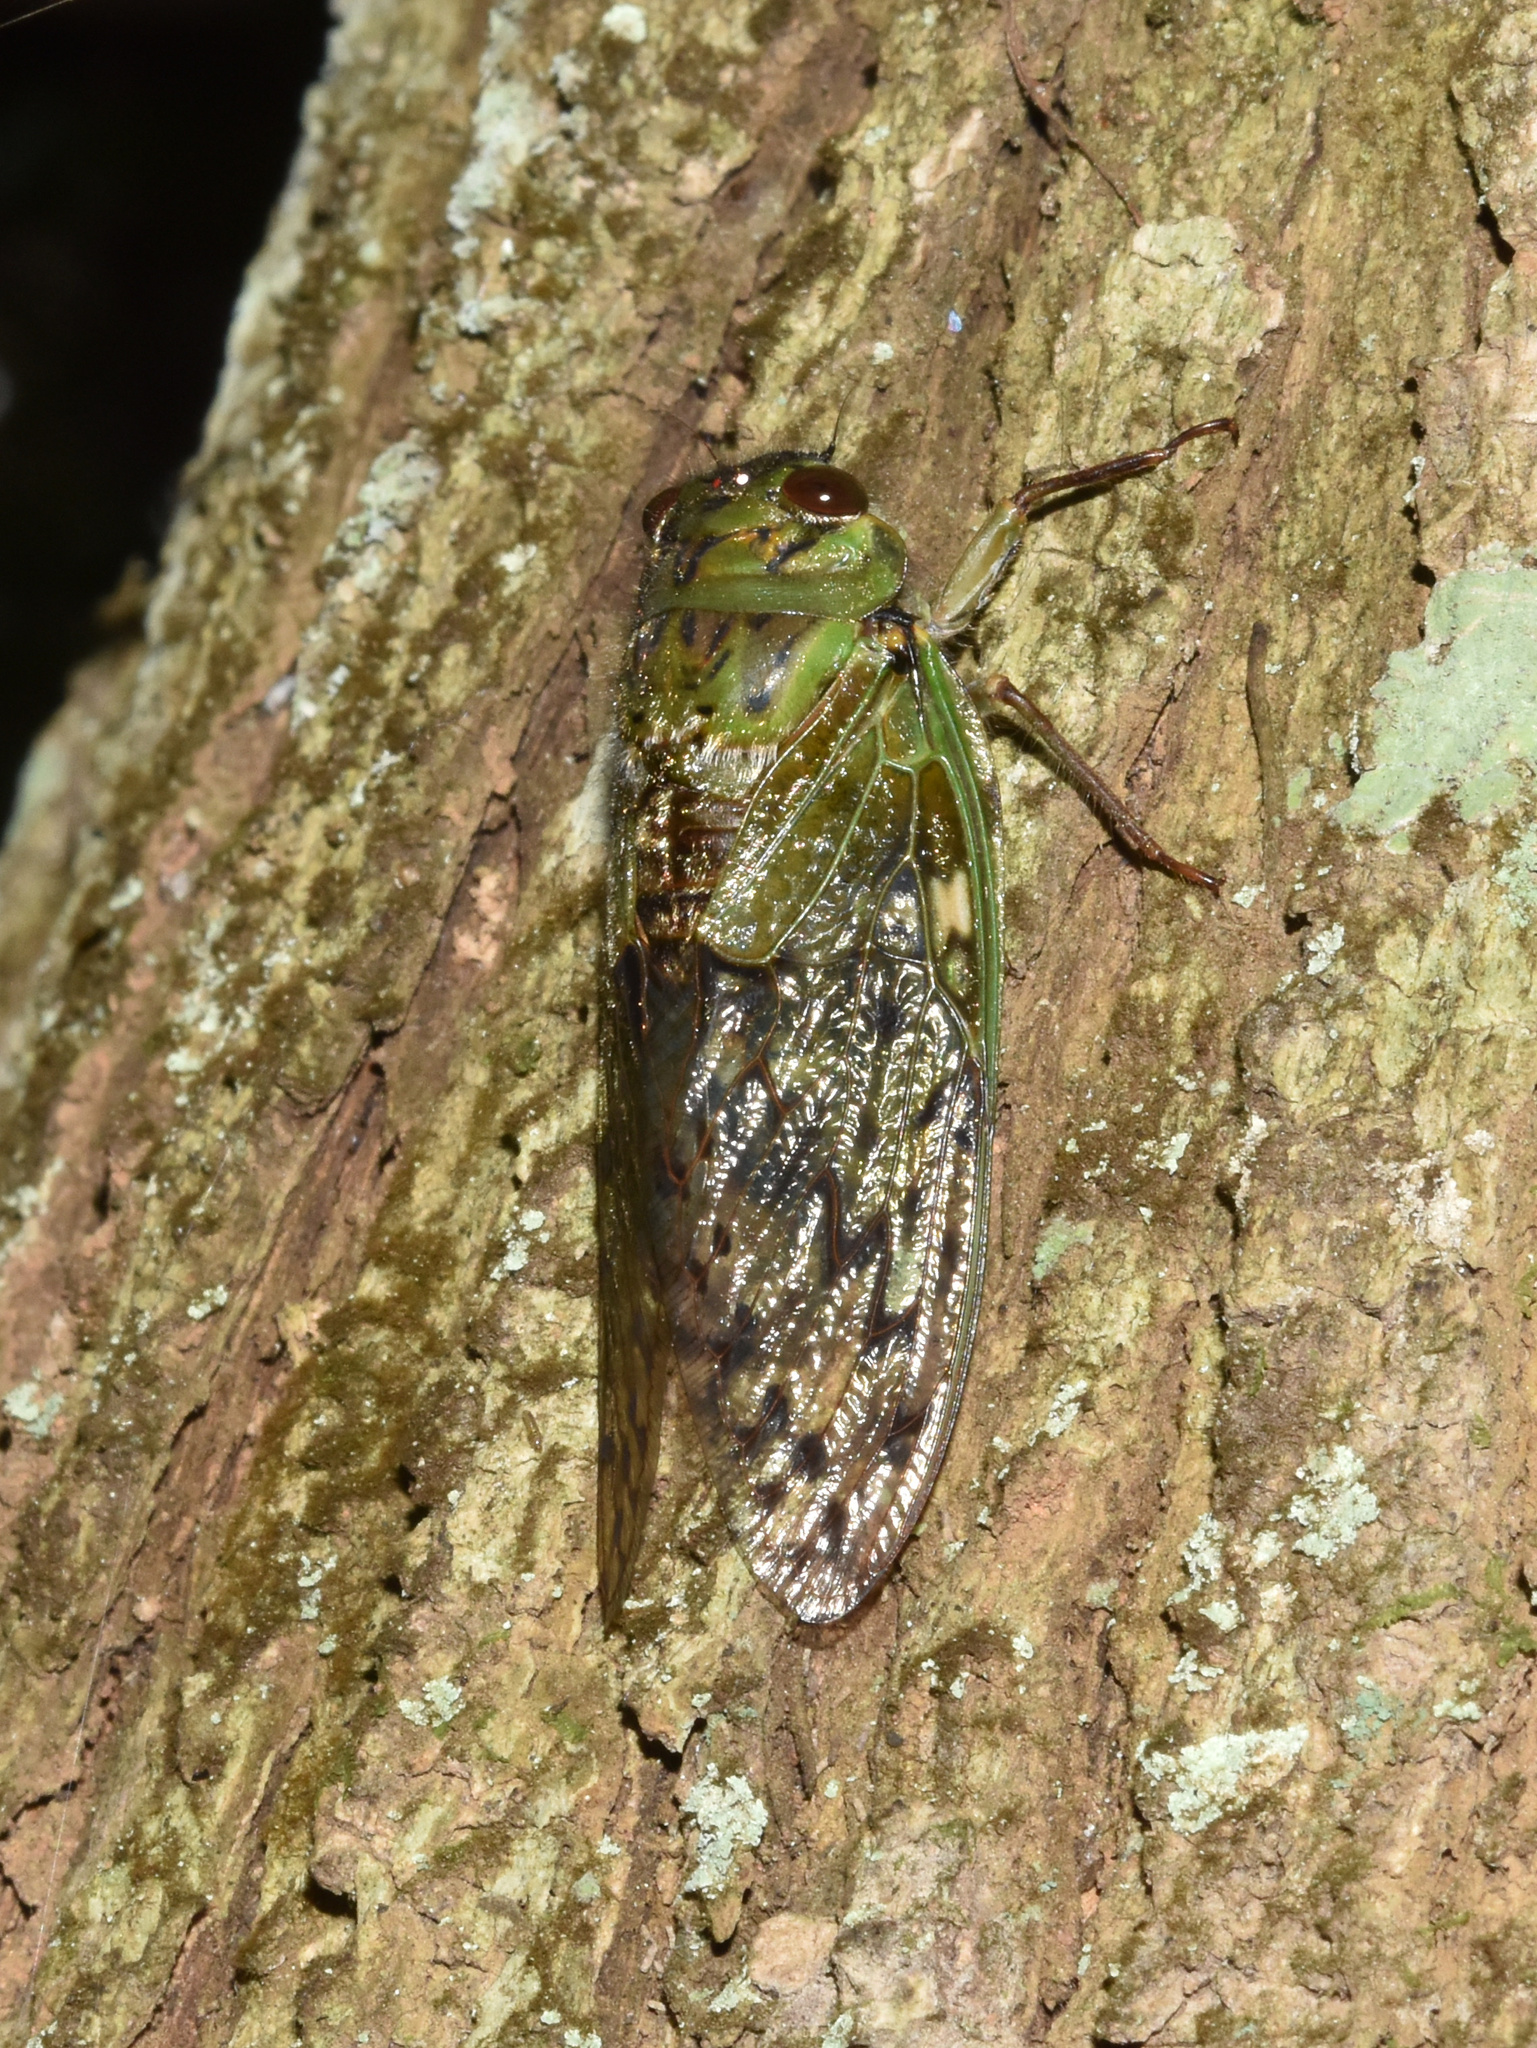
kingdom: Animalia
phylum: Arthropoda
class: Insecta
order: Hemiptera
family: Cicadidae
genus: Dyticopycna
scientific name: Dyticopycna semiclara
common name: Whining forest cicada
